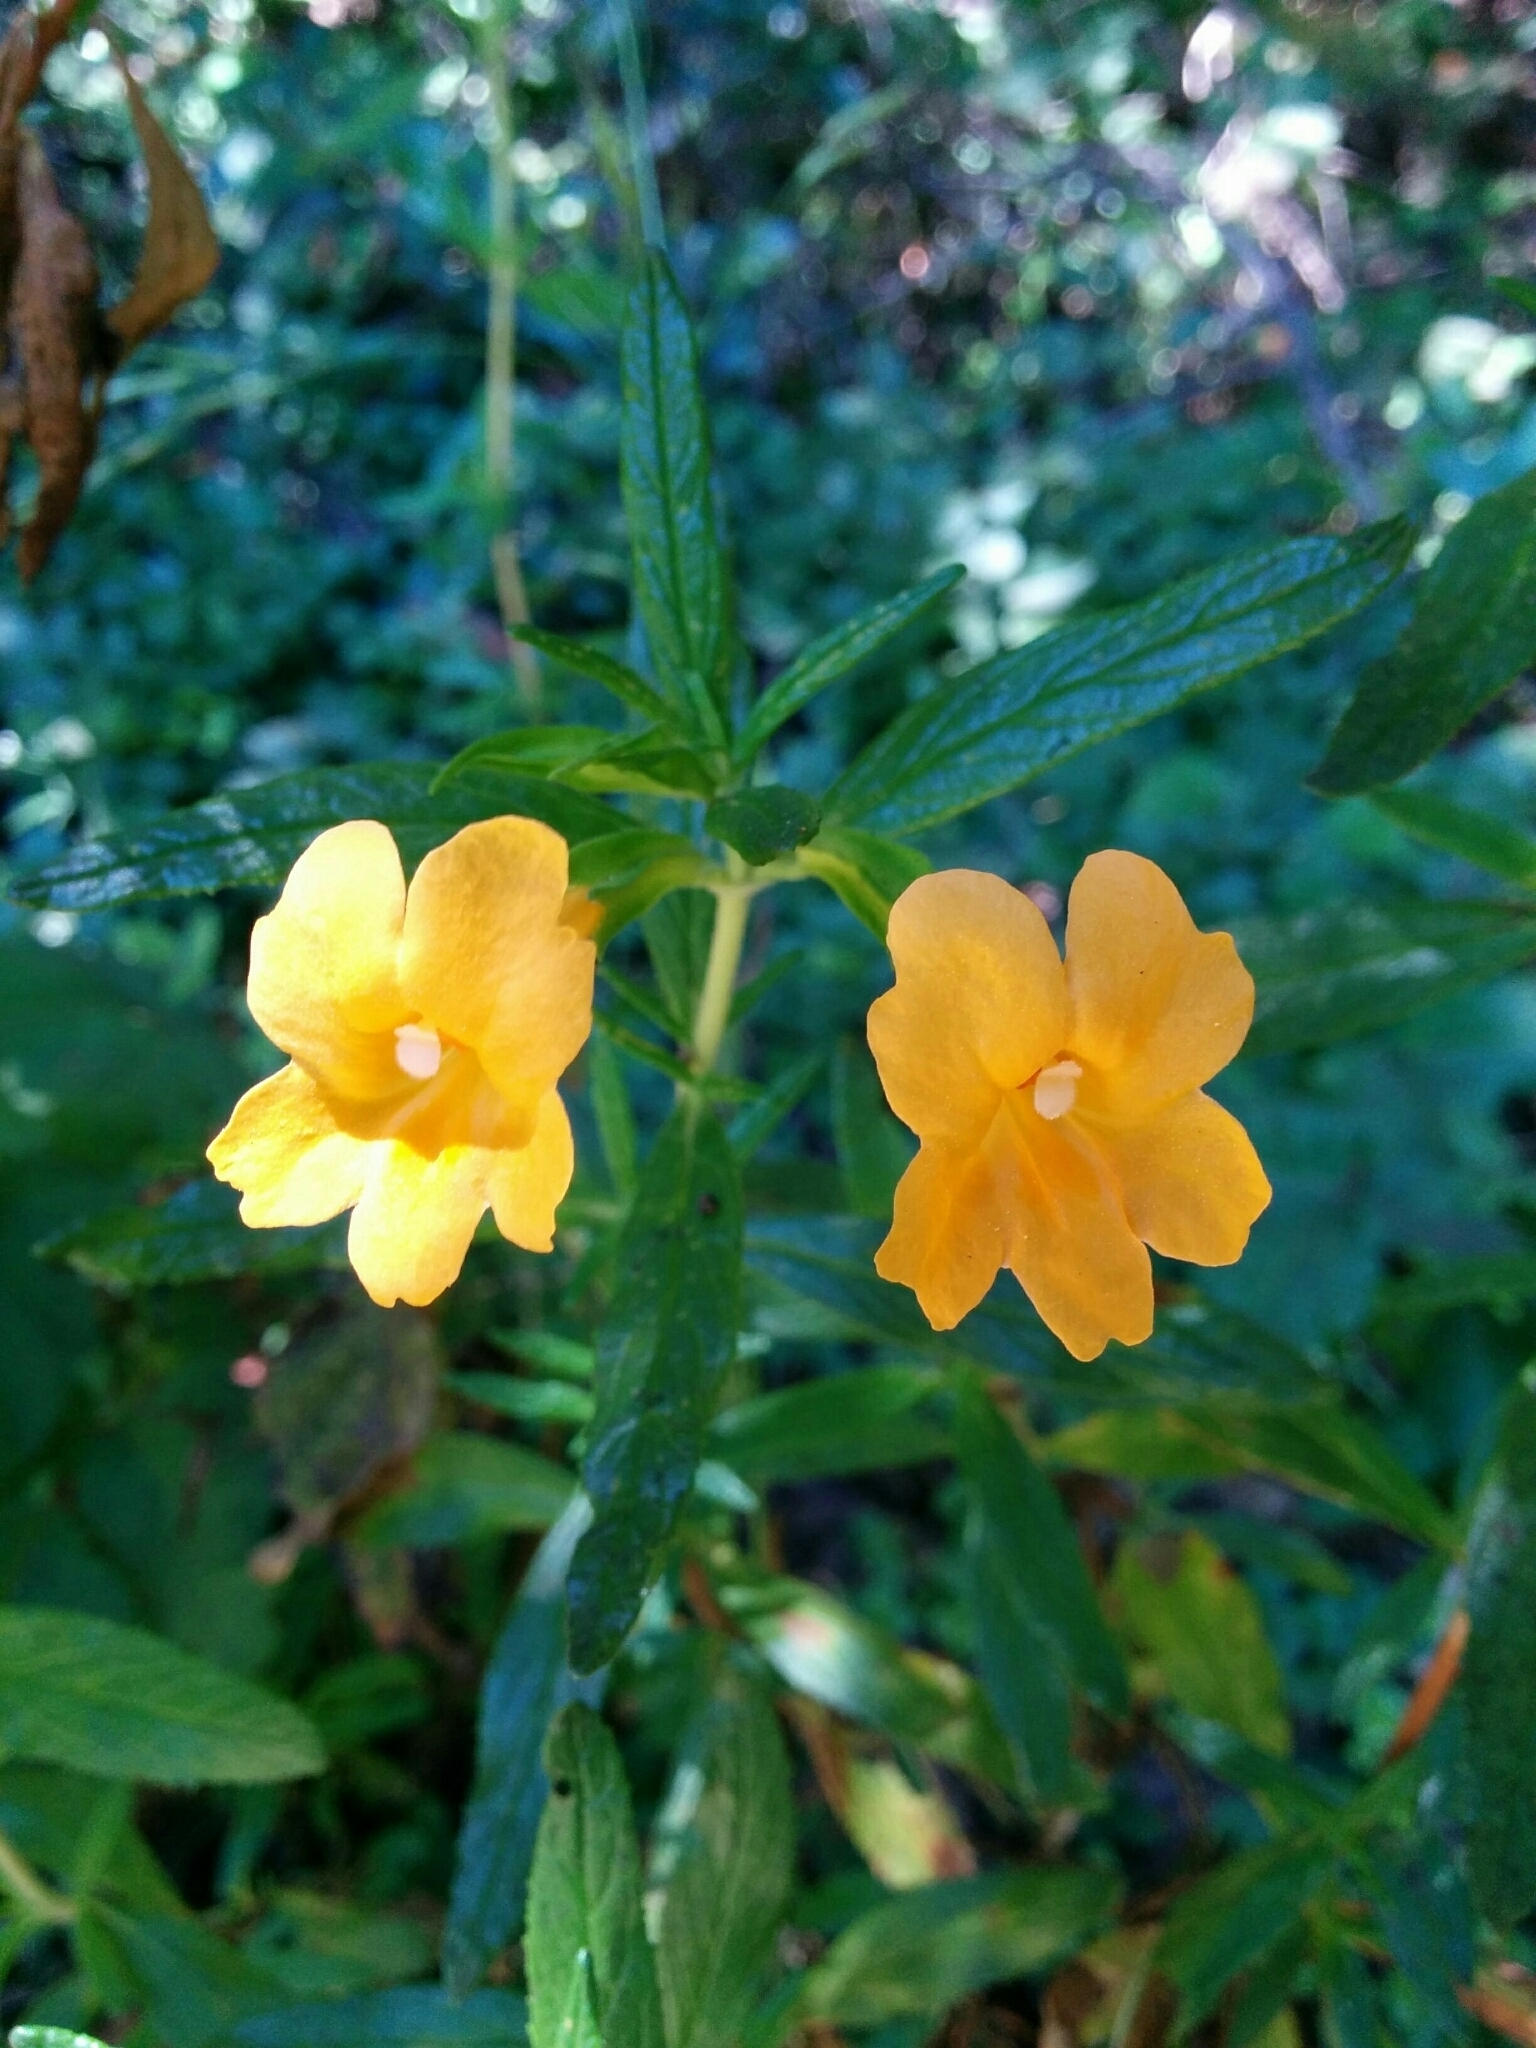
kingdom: Plantae
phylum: Tracheophyta
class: Magnoliopsida
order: Lamiales
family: Phrymaceae
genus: Diplacus
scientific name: Diplacus aurantiacus
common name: Bush monkey-flower
